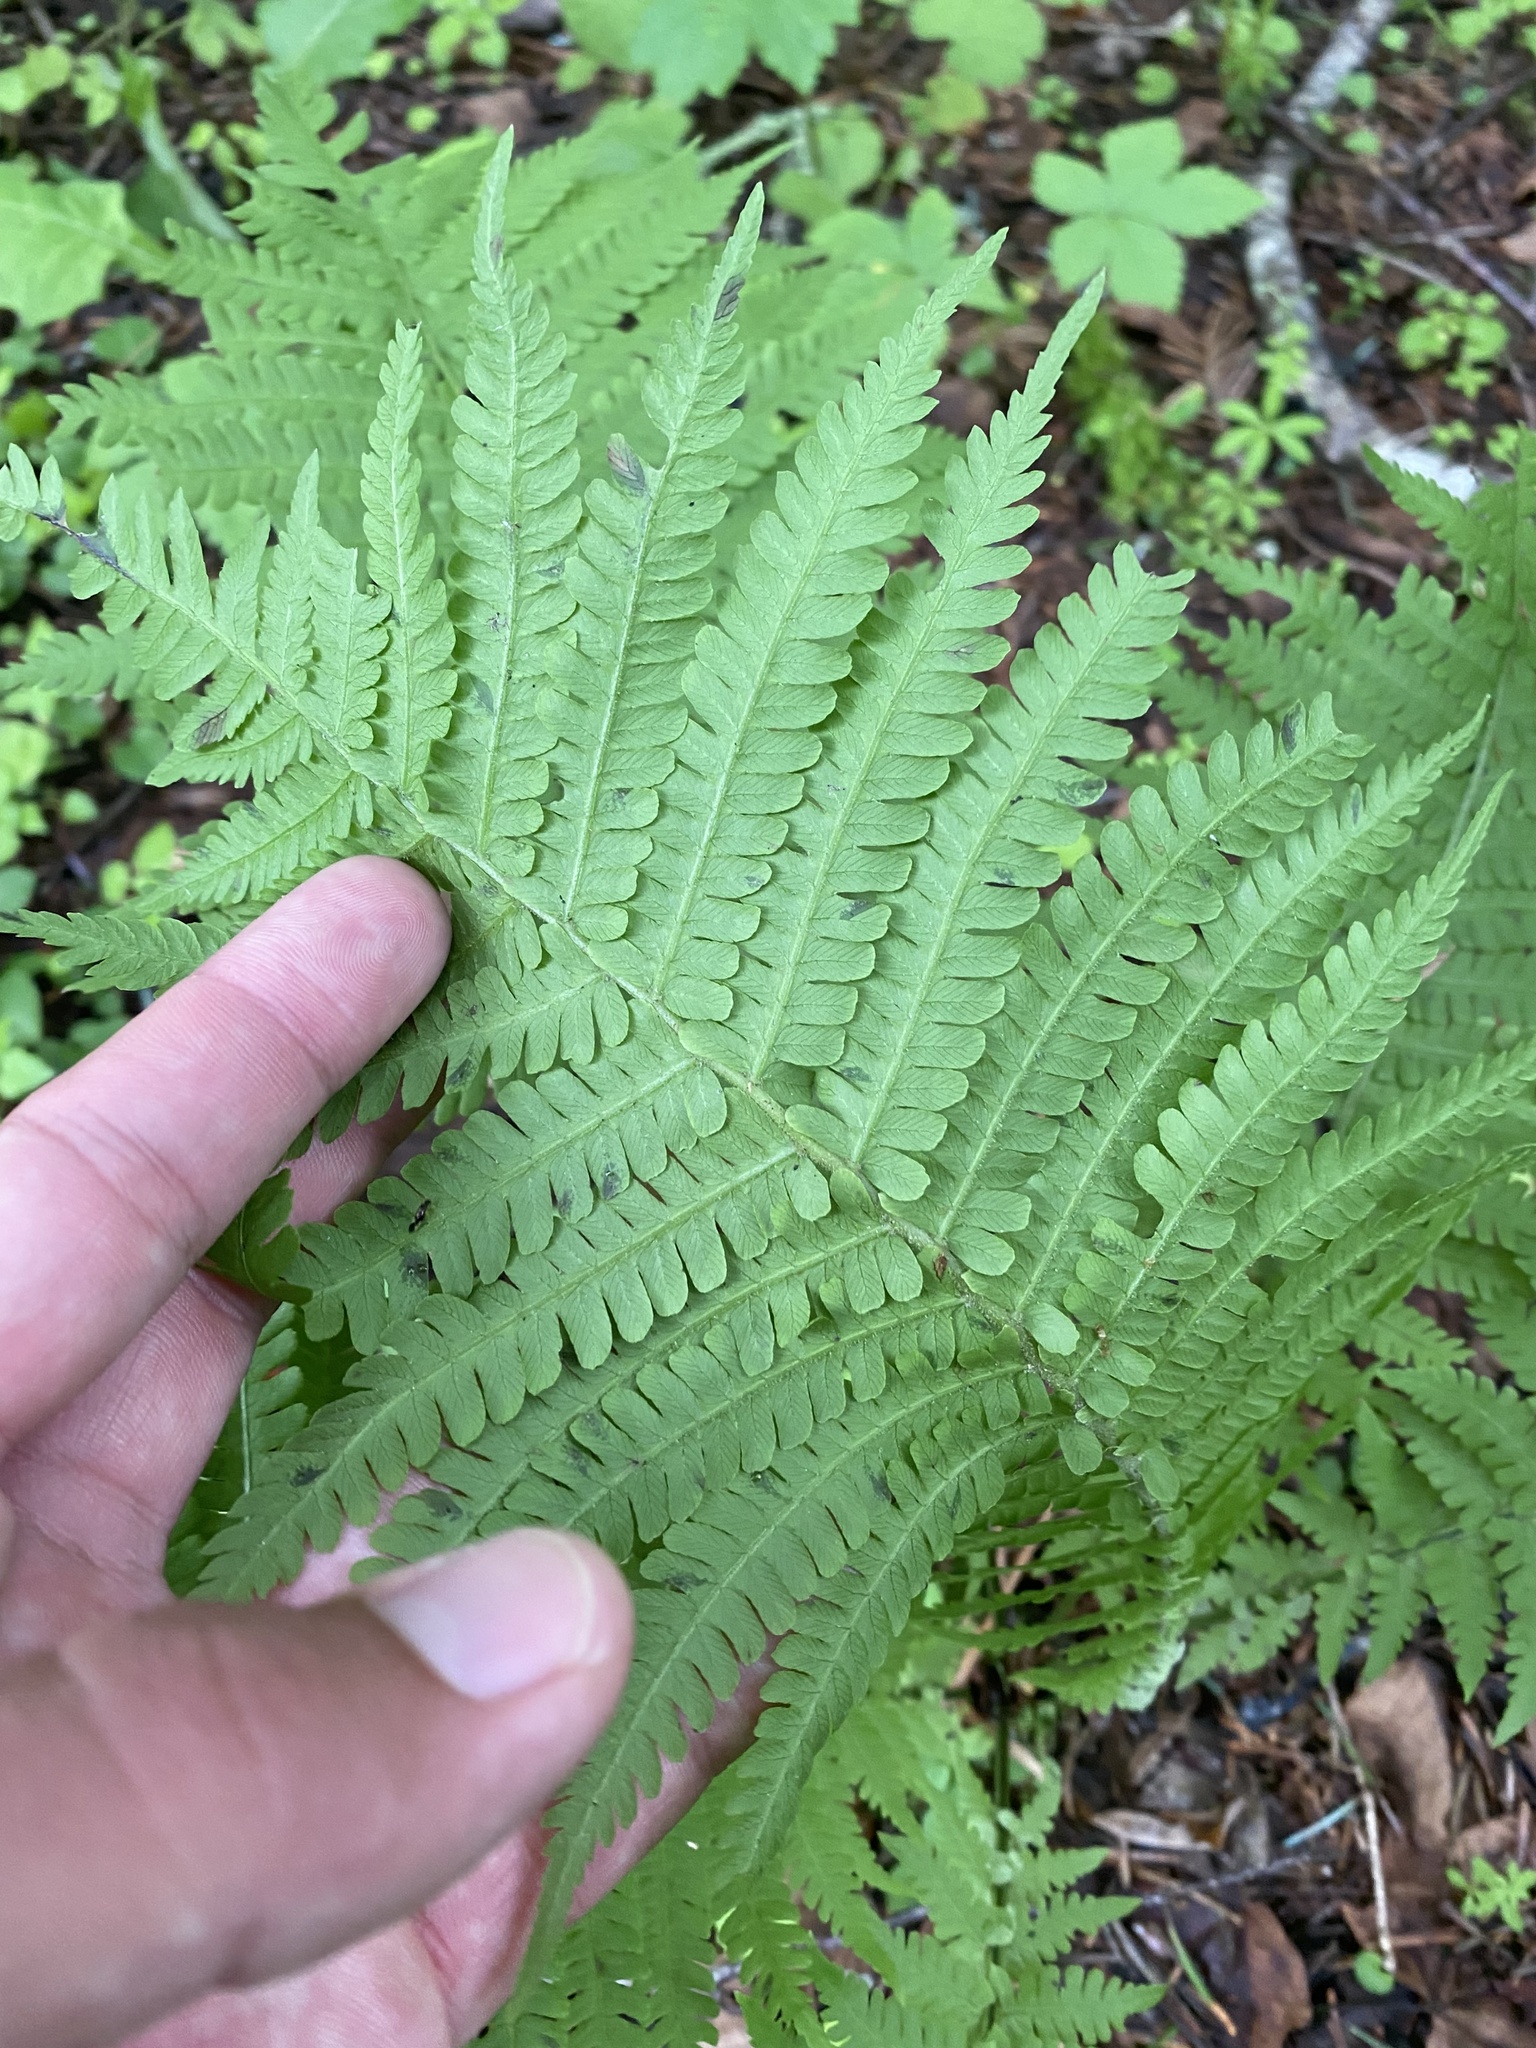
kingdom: Plantae
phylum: Tracheophyta
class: Polypodiopsida
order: Polypodiales
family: Onocleaceae
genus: Matteuccia
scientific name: Matteuccia struthiopteris
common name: Ostrich fern
